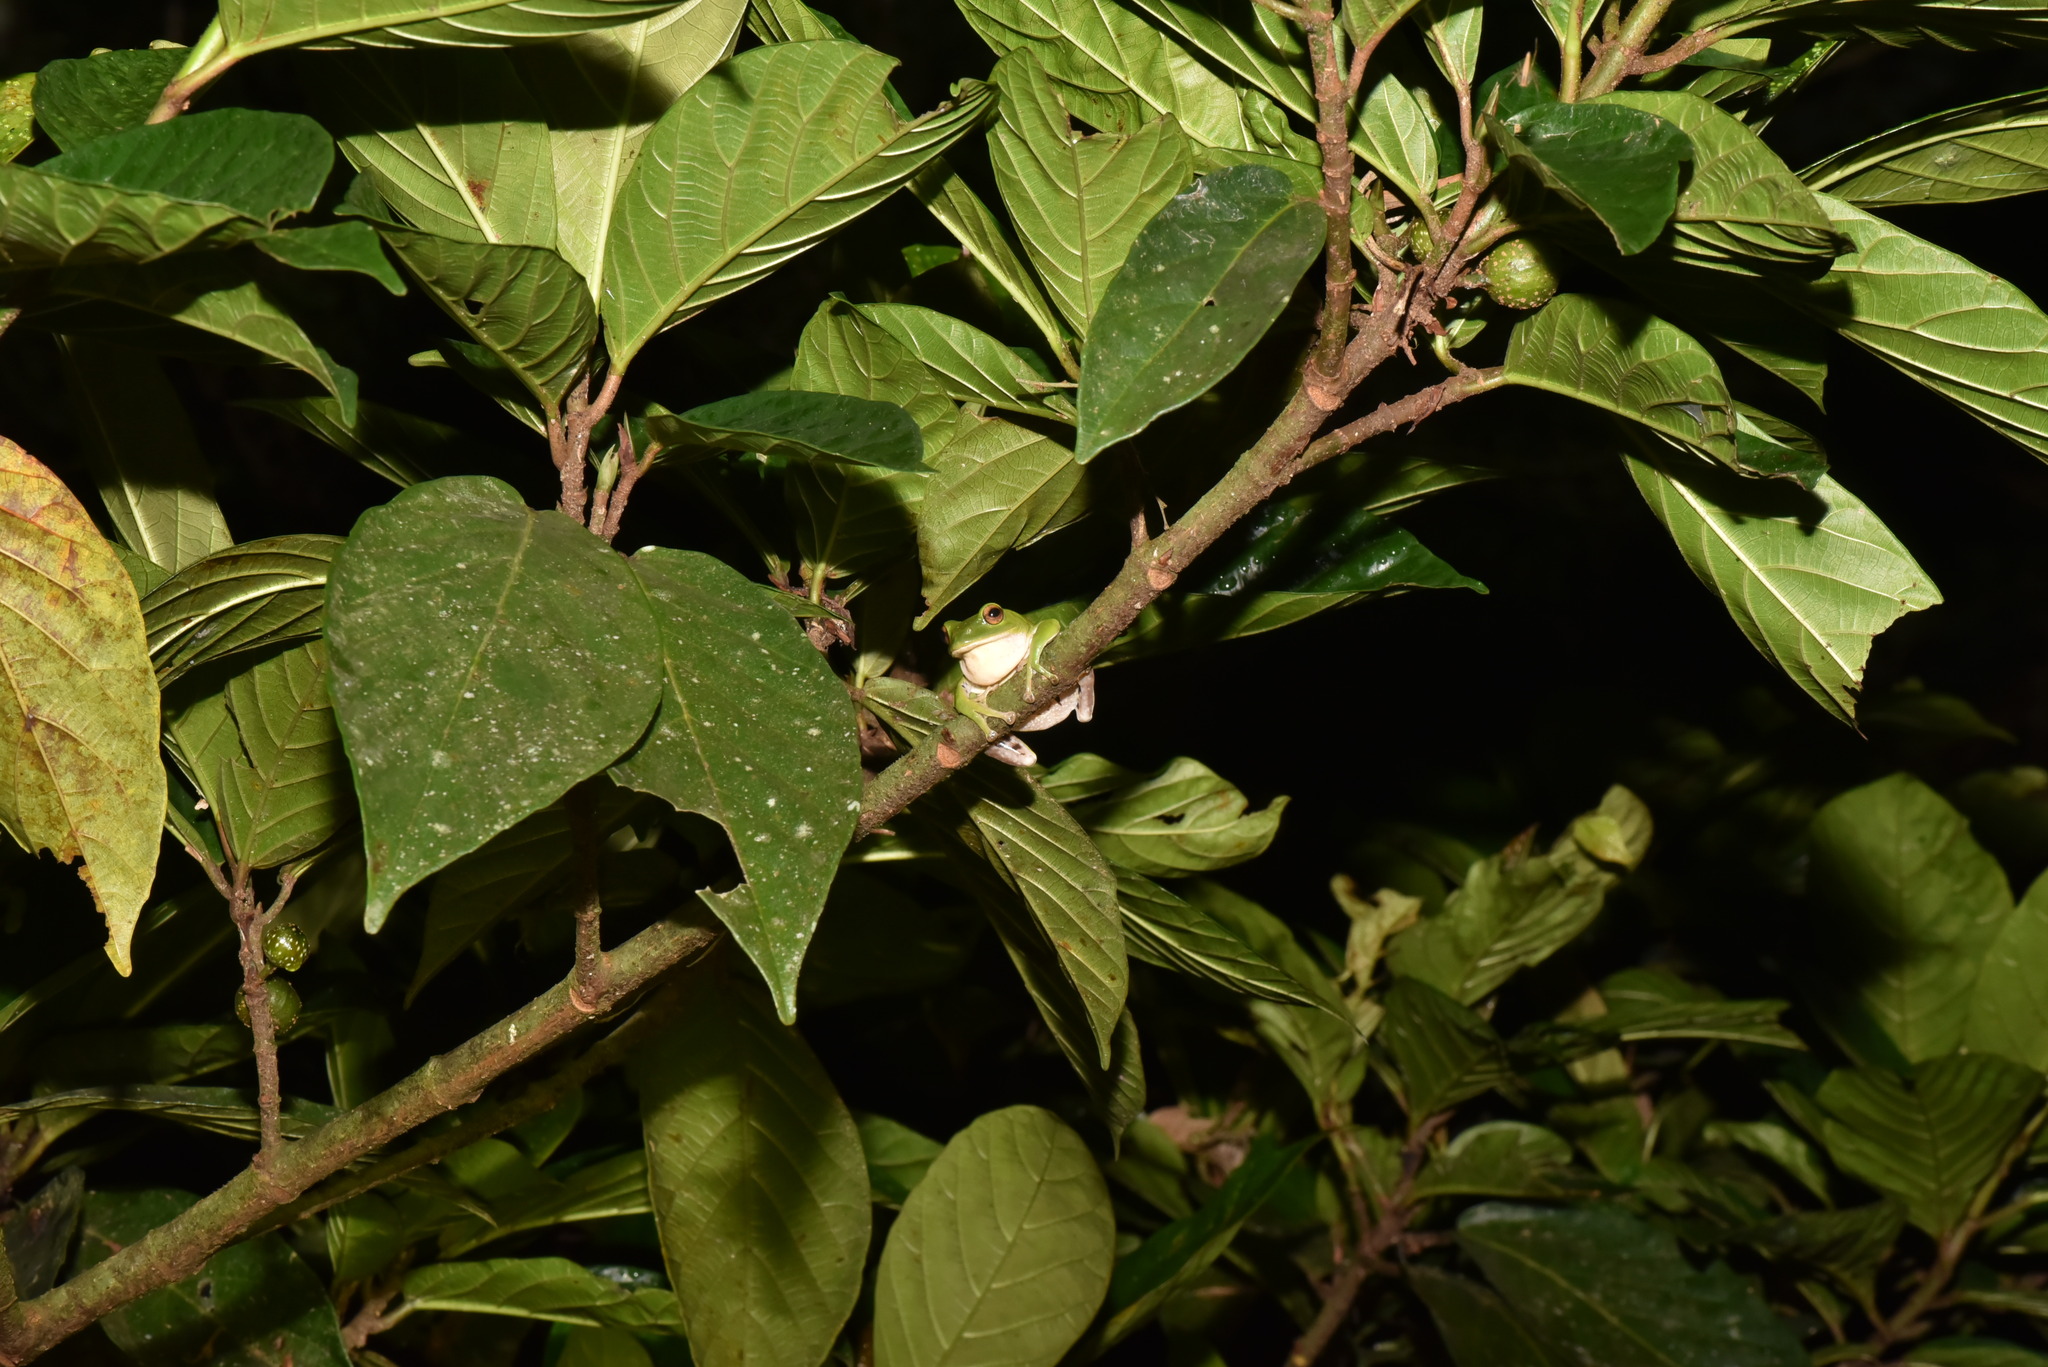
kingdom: Animalia
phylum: Chordata
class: Amphibia
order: Anura
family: Rhacophoridae
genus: Zhangixalus
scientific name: Zhangixalus moltrechti
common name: Moltrecht's treefrog
